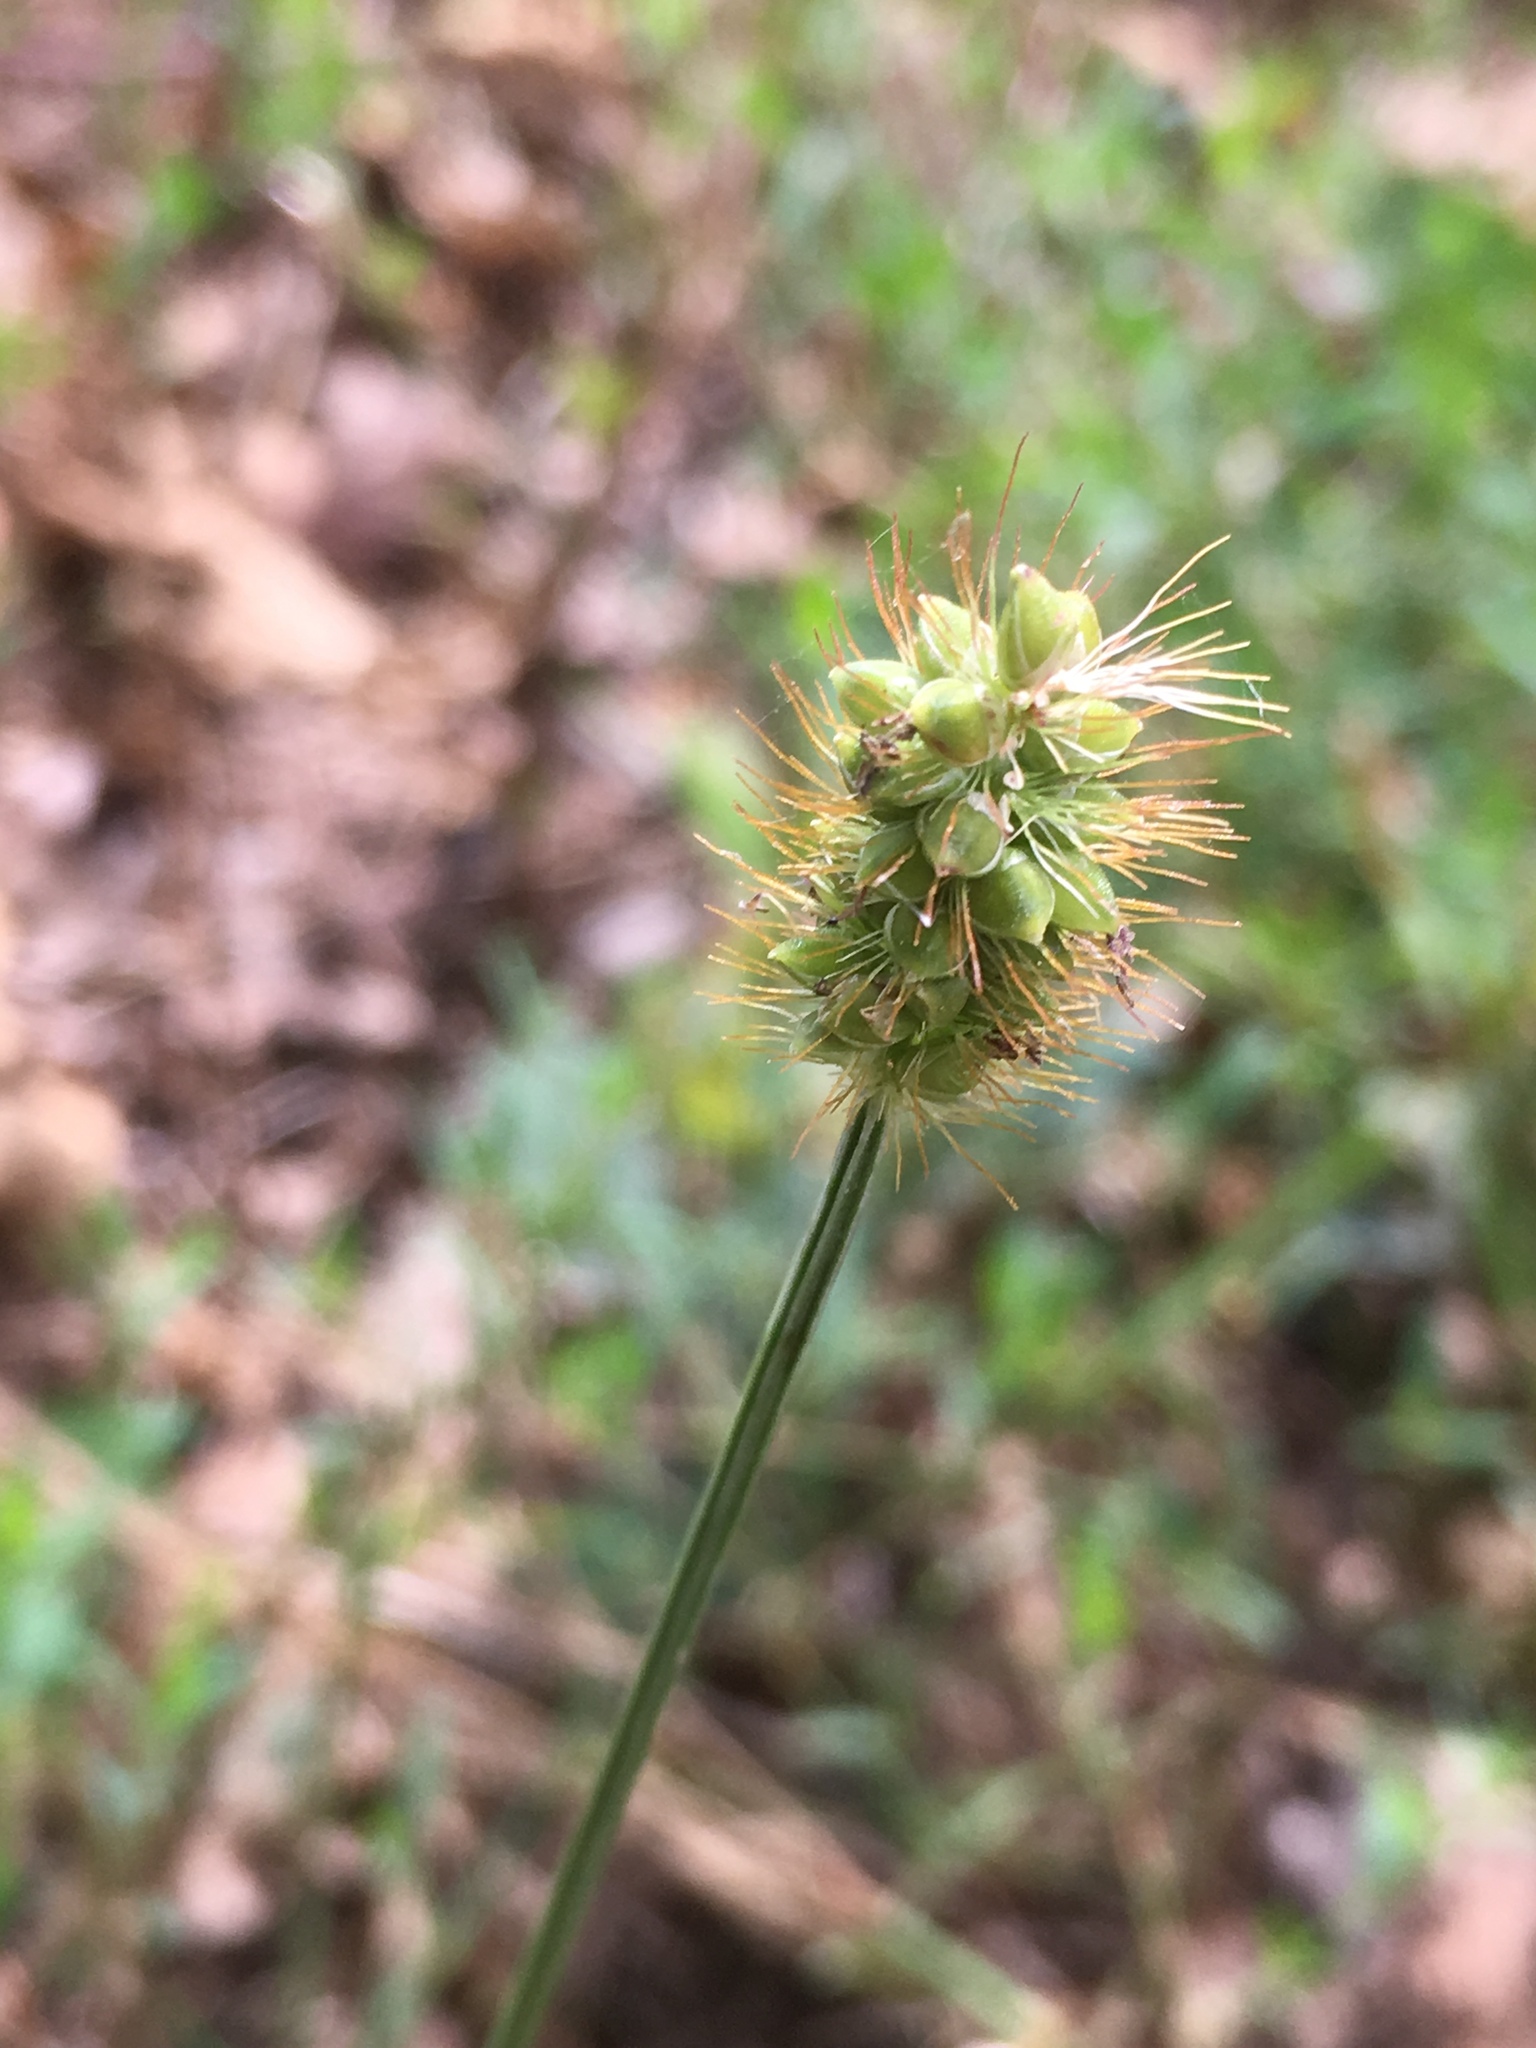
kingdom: Plantae
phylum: Tracheophyta
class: Liliopsida
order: Poales
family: Poaceae
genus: Setaria
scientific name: Setaria pumila
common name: Yellow bristle-grass
